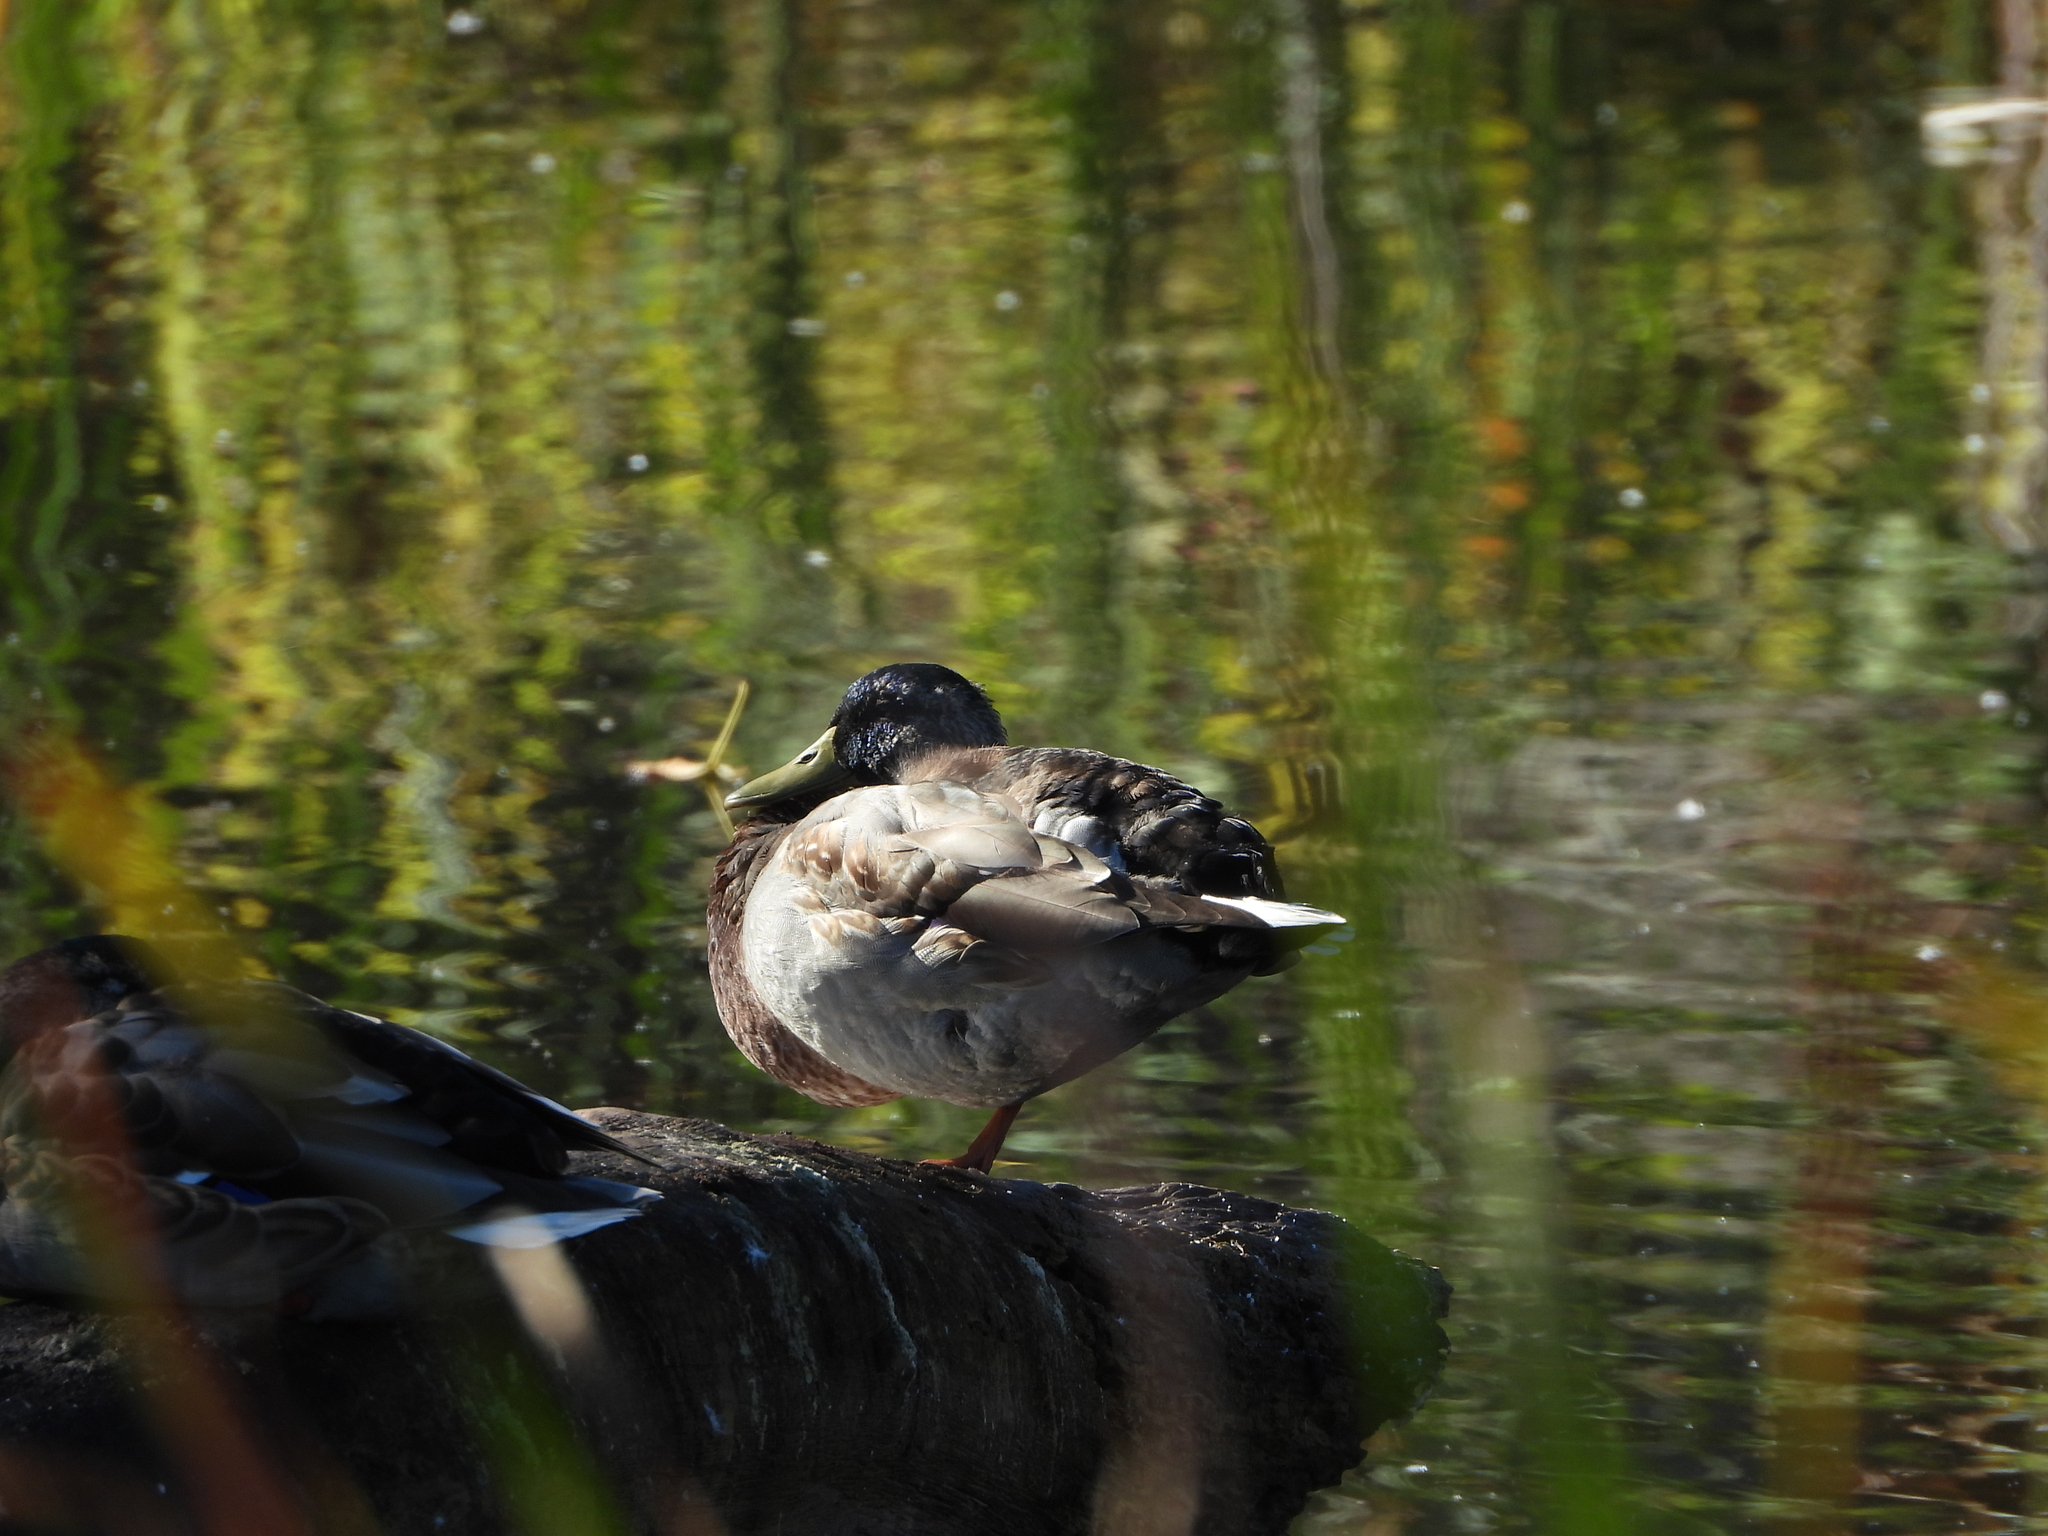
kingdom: Animalia
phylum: Chordata
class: Aves
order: Anseriformes
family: Anatidae
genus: Anas
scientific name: Anas platyrhynchos
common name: Mallard
